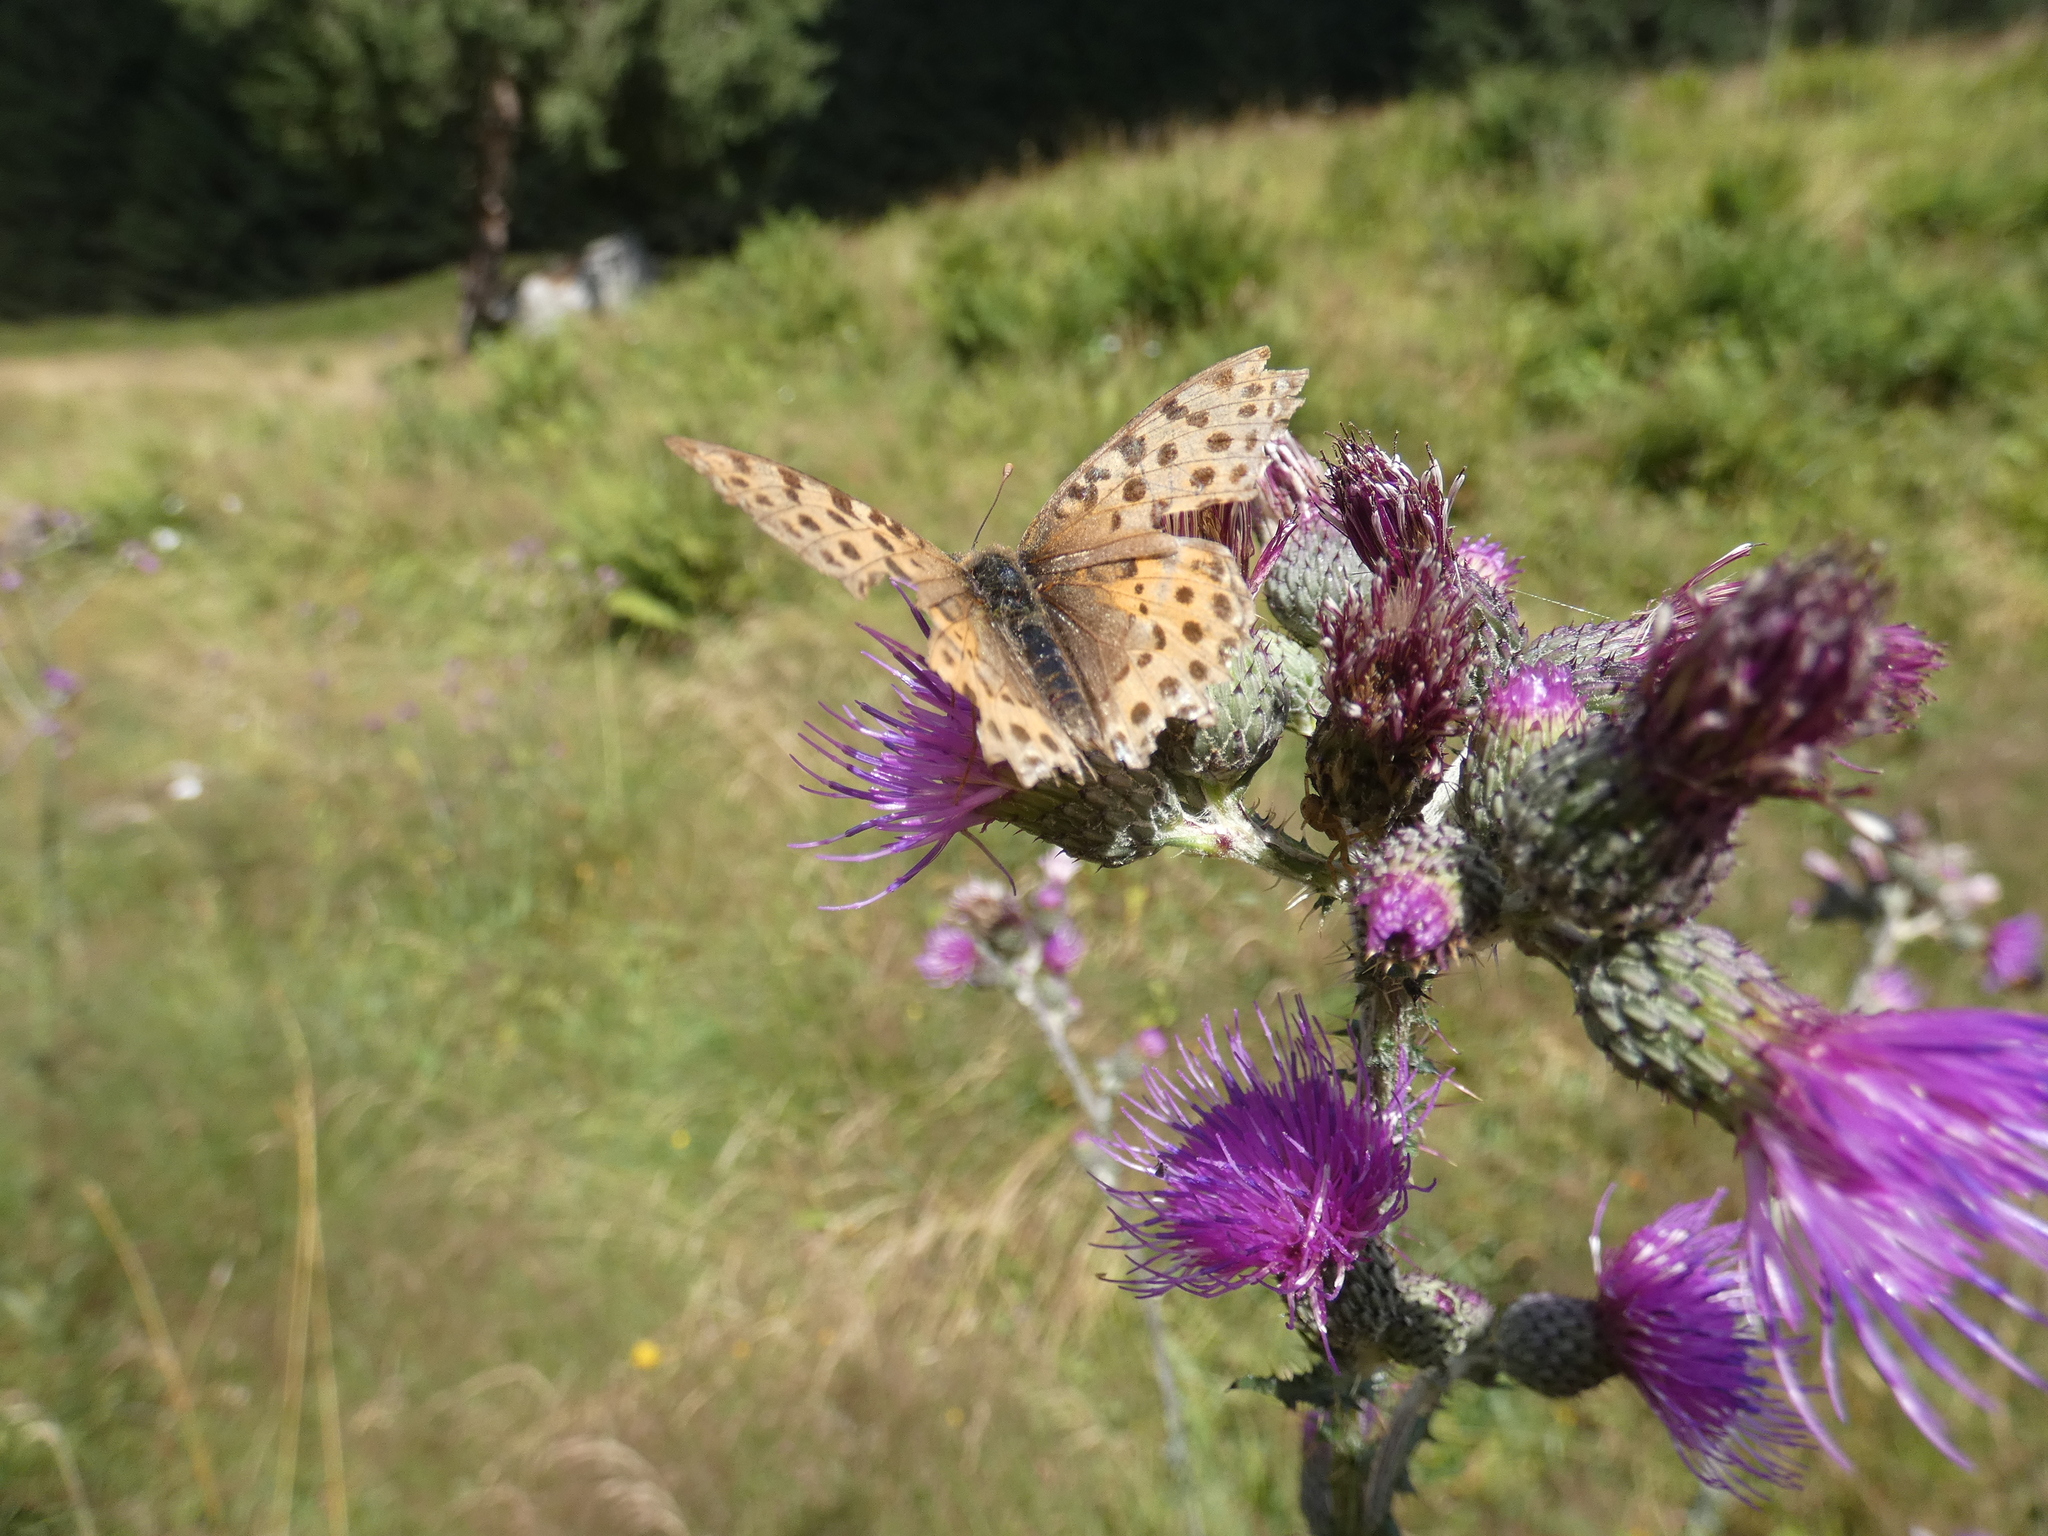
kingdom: Animalia
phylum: Arthropoda
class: Insecta
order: Lepidoptera
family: Nymphalidae
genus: Issoria
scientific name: Issoria lathonia
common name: Queen of spain fritillary
